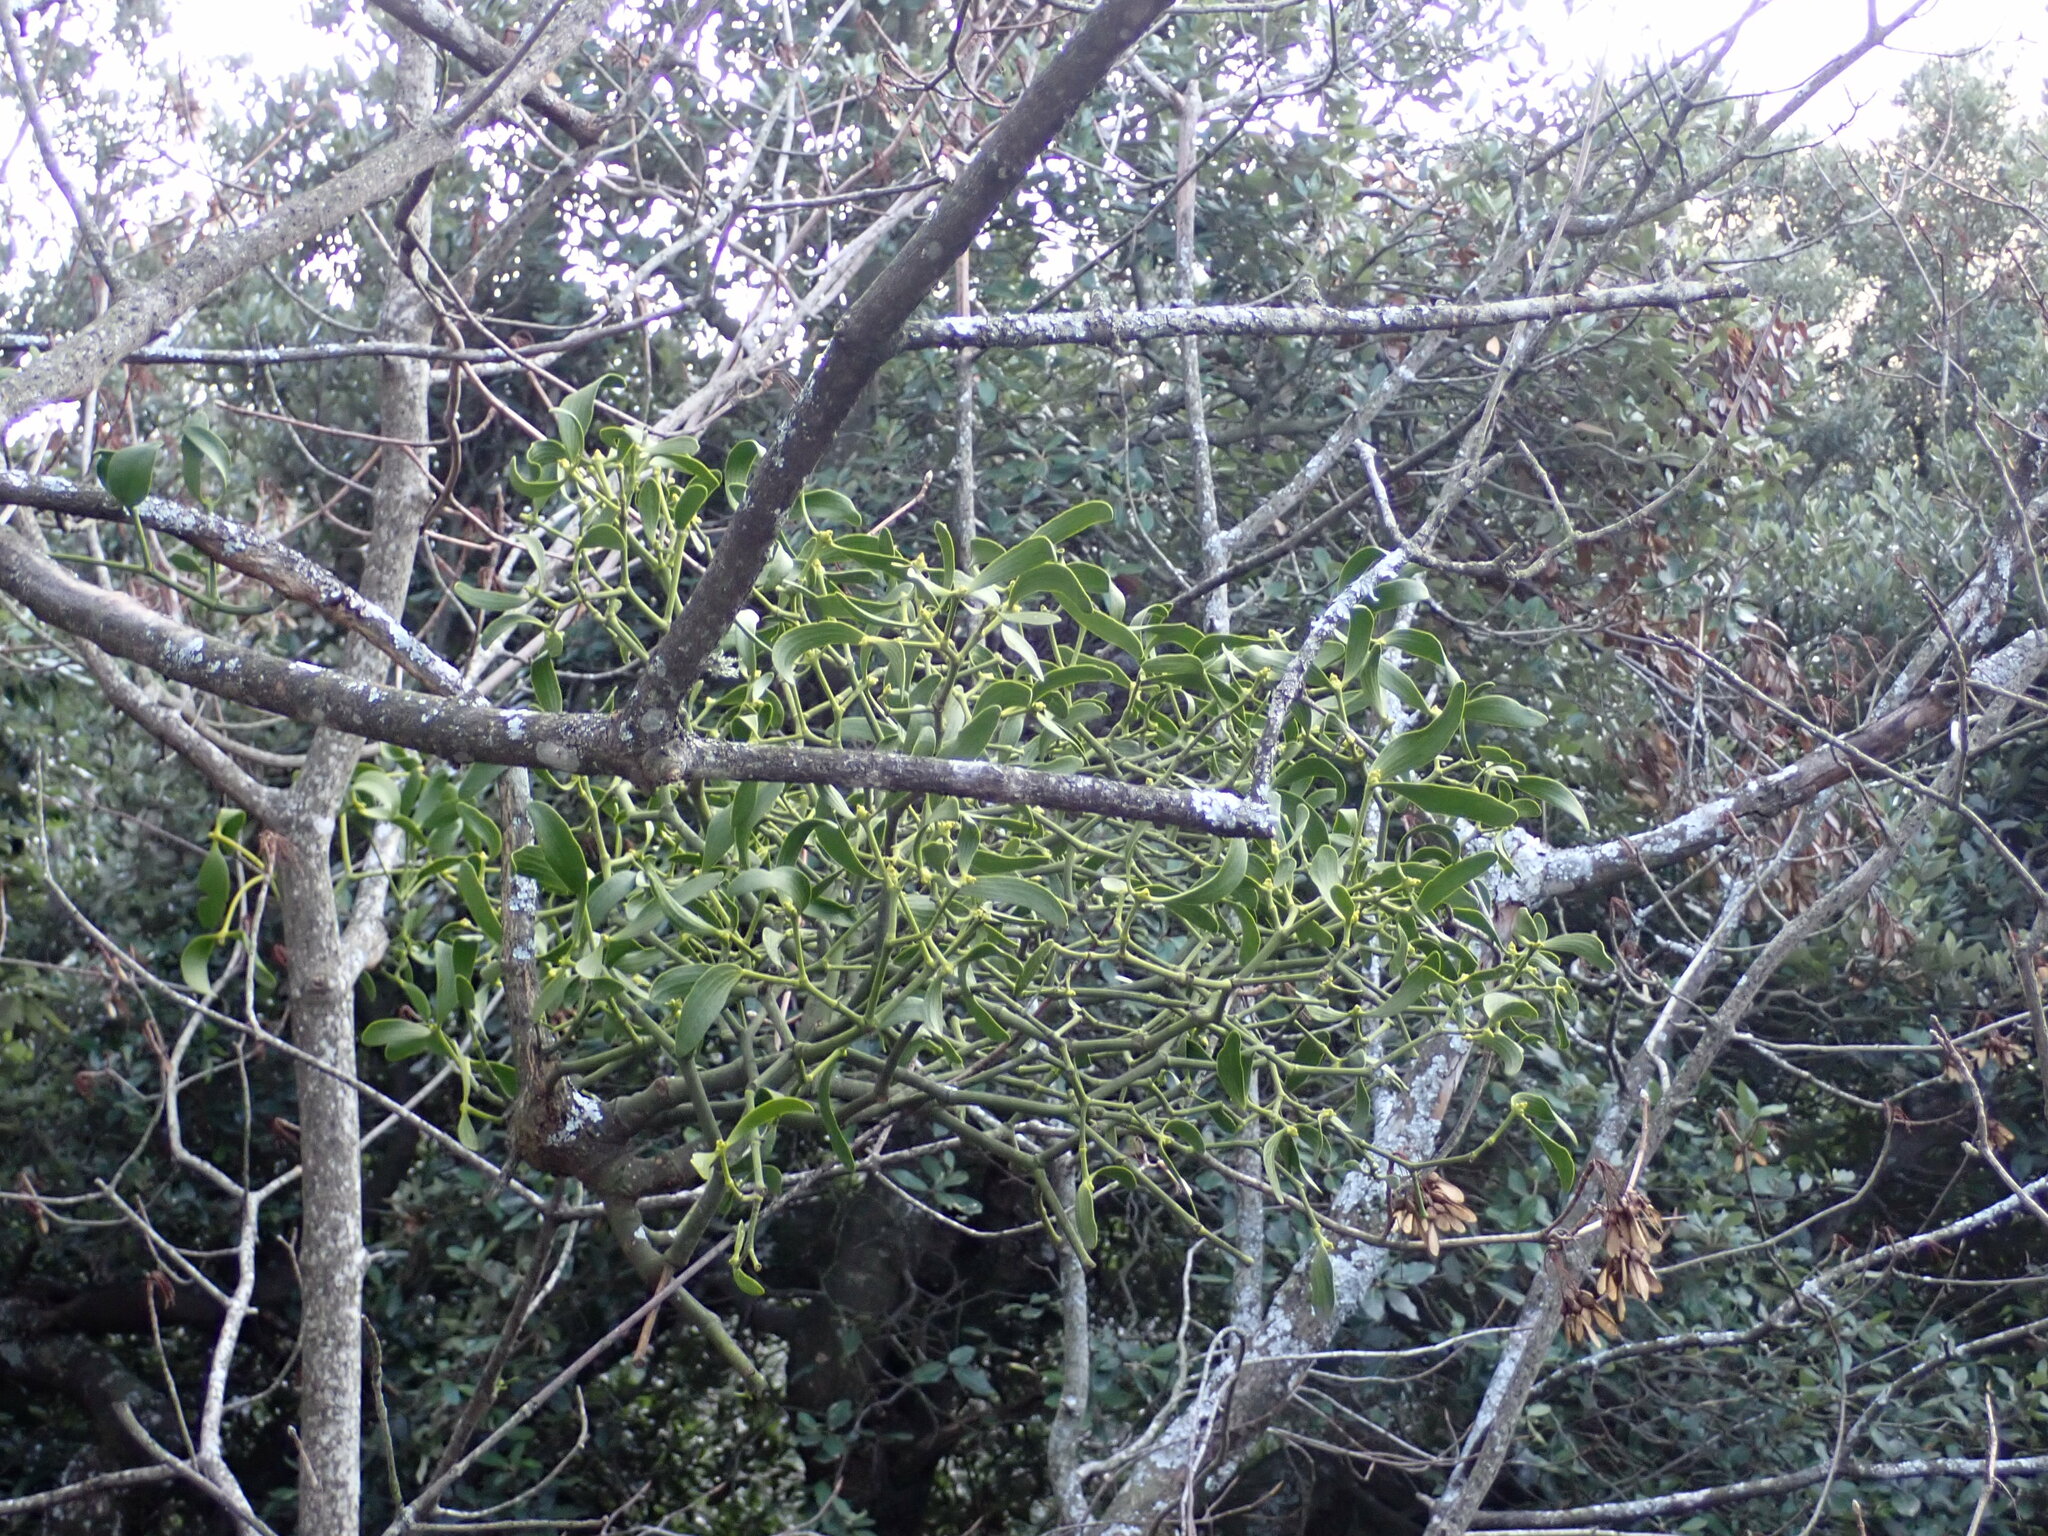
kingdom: Plantae
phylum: Tracheophyta
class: Magnoliopsida
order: Santalales
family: Viscaceae
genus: Viscum
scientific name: Viscum album
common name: Mistletoe
